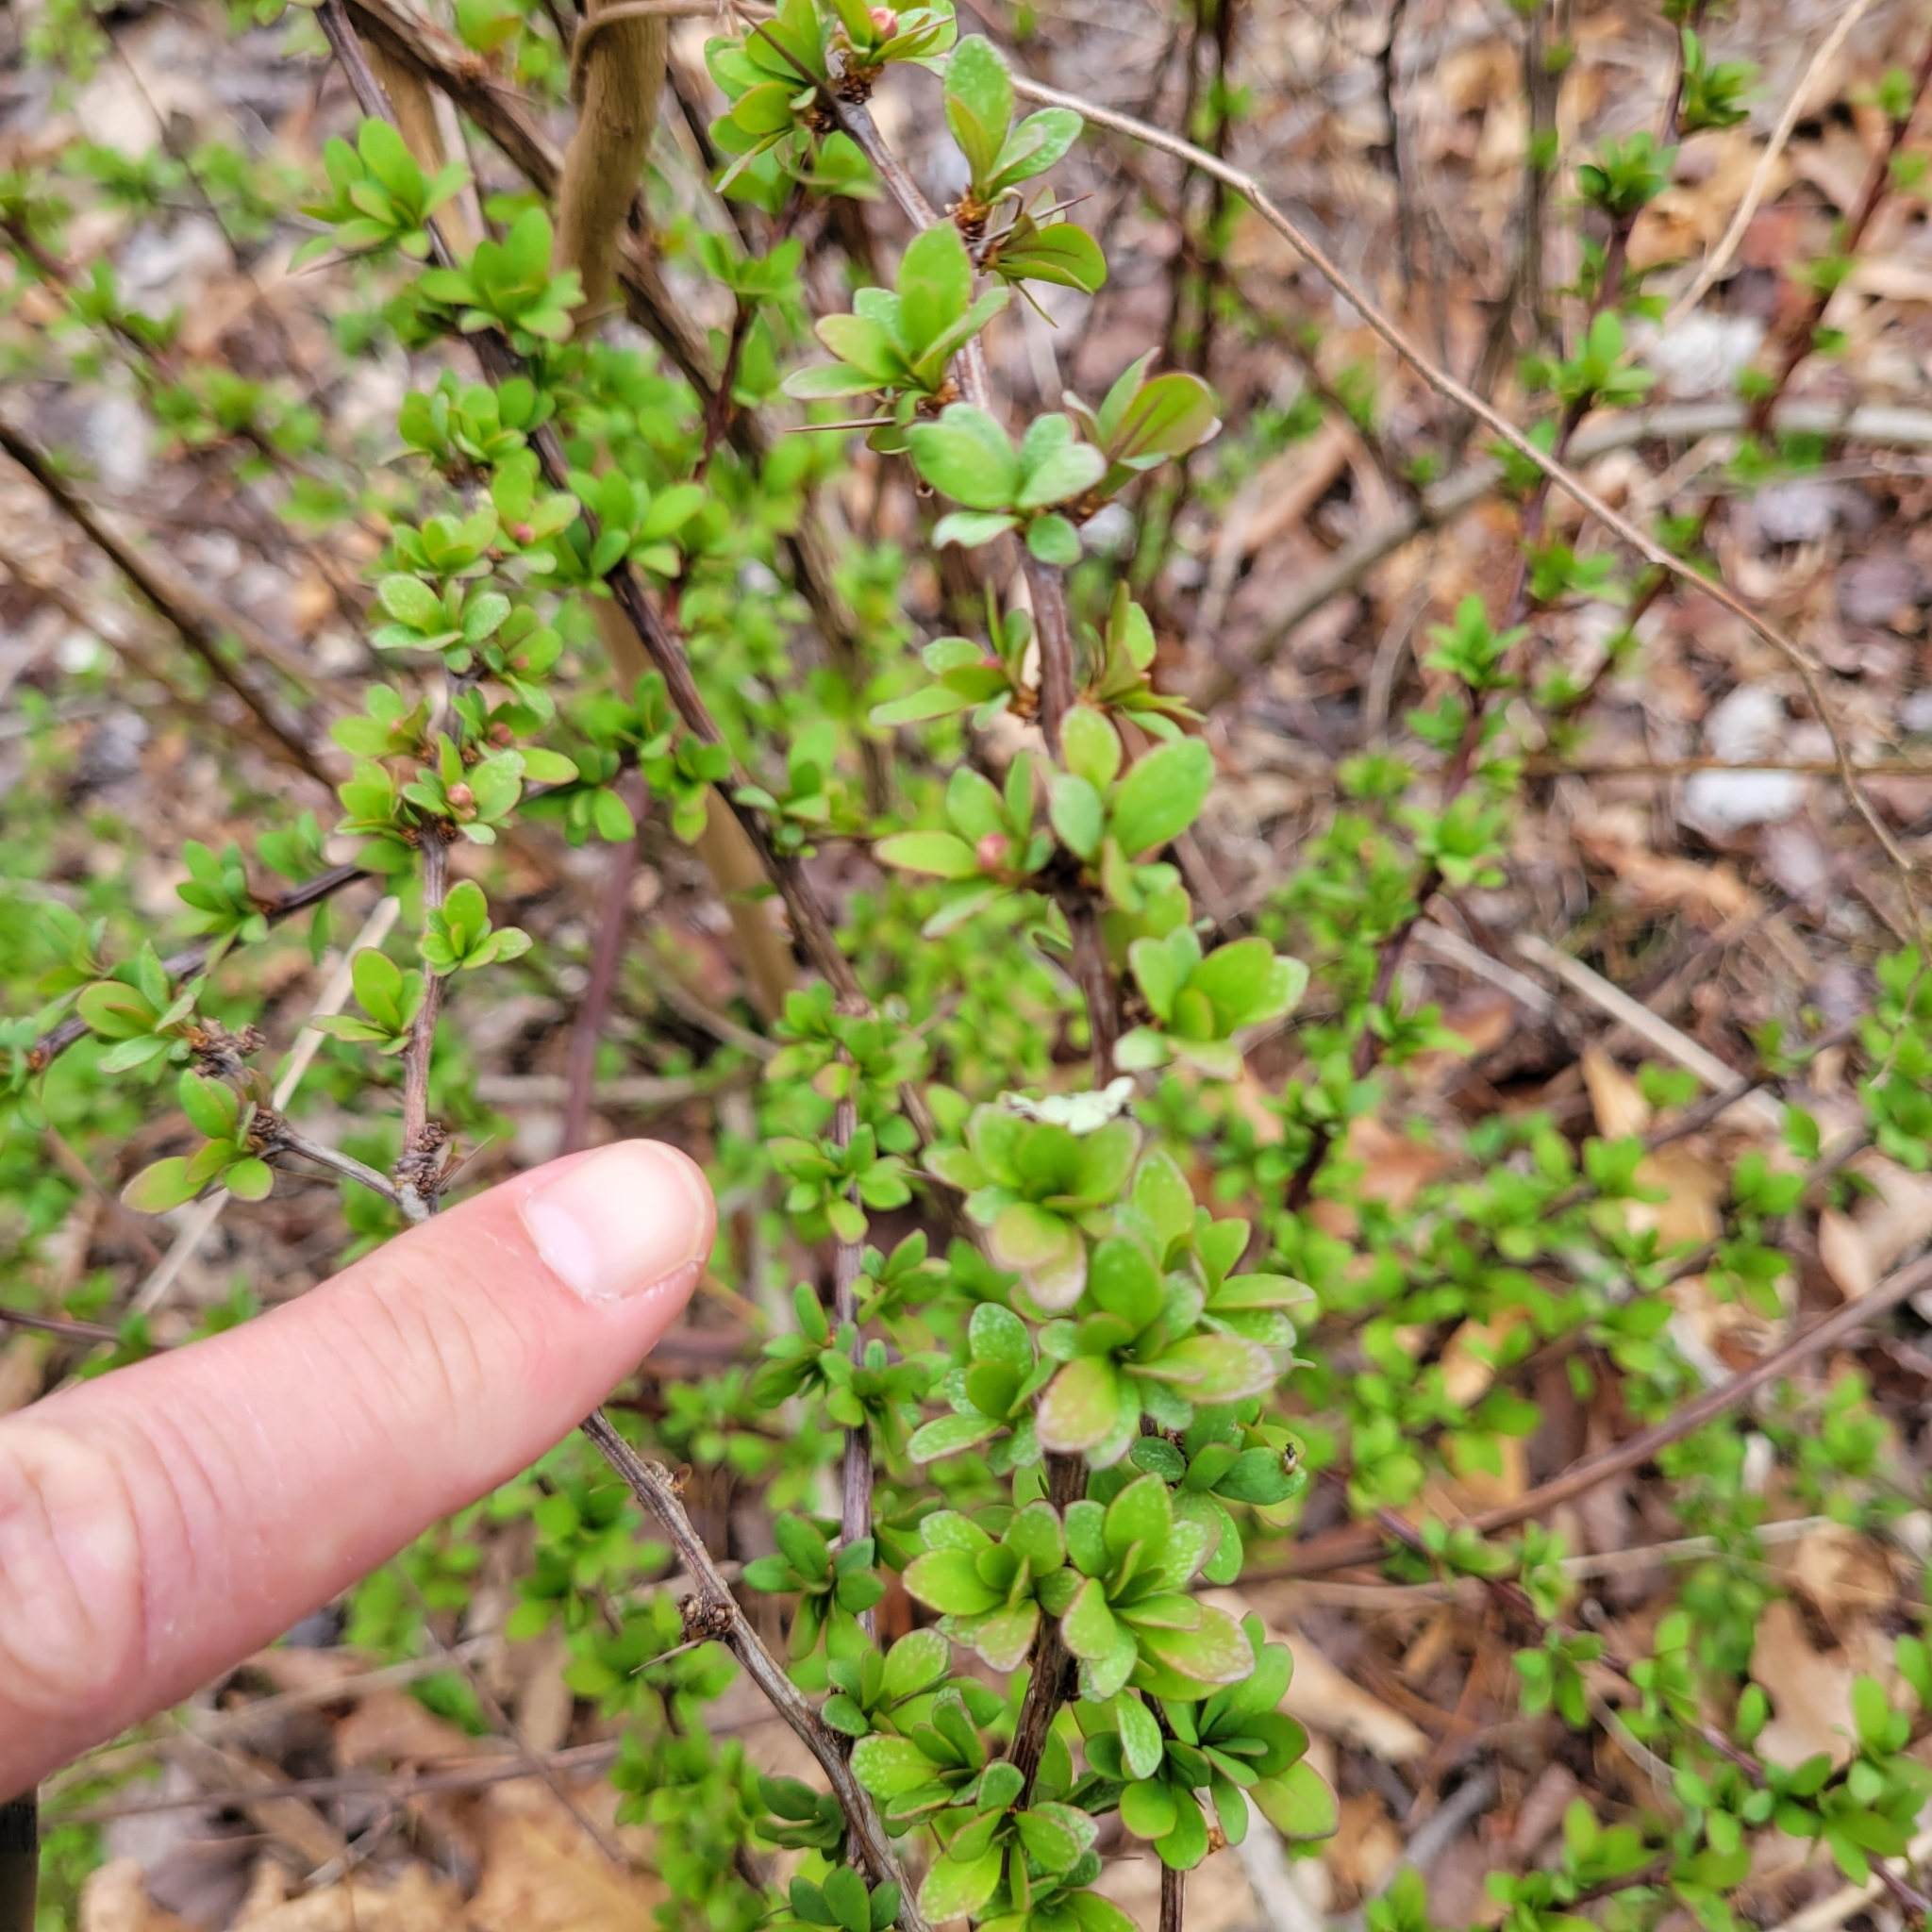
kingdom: Plantae
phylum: Tracheophyta
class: Magnoliopsida
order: Ranunculales
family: Berberidaceae
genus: Berberis
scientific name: Berberis thunbergii
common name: Japanese barberry
